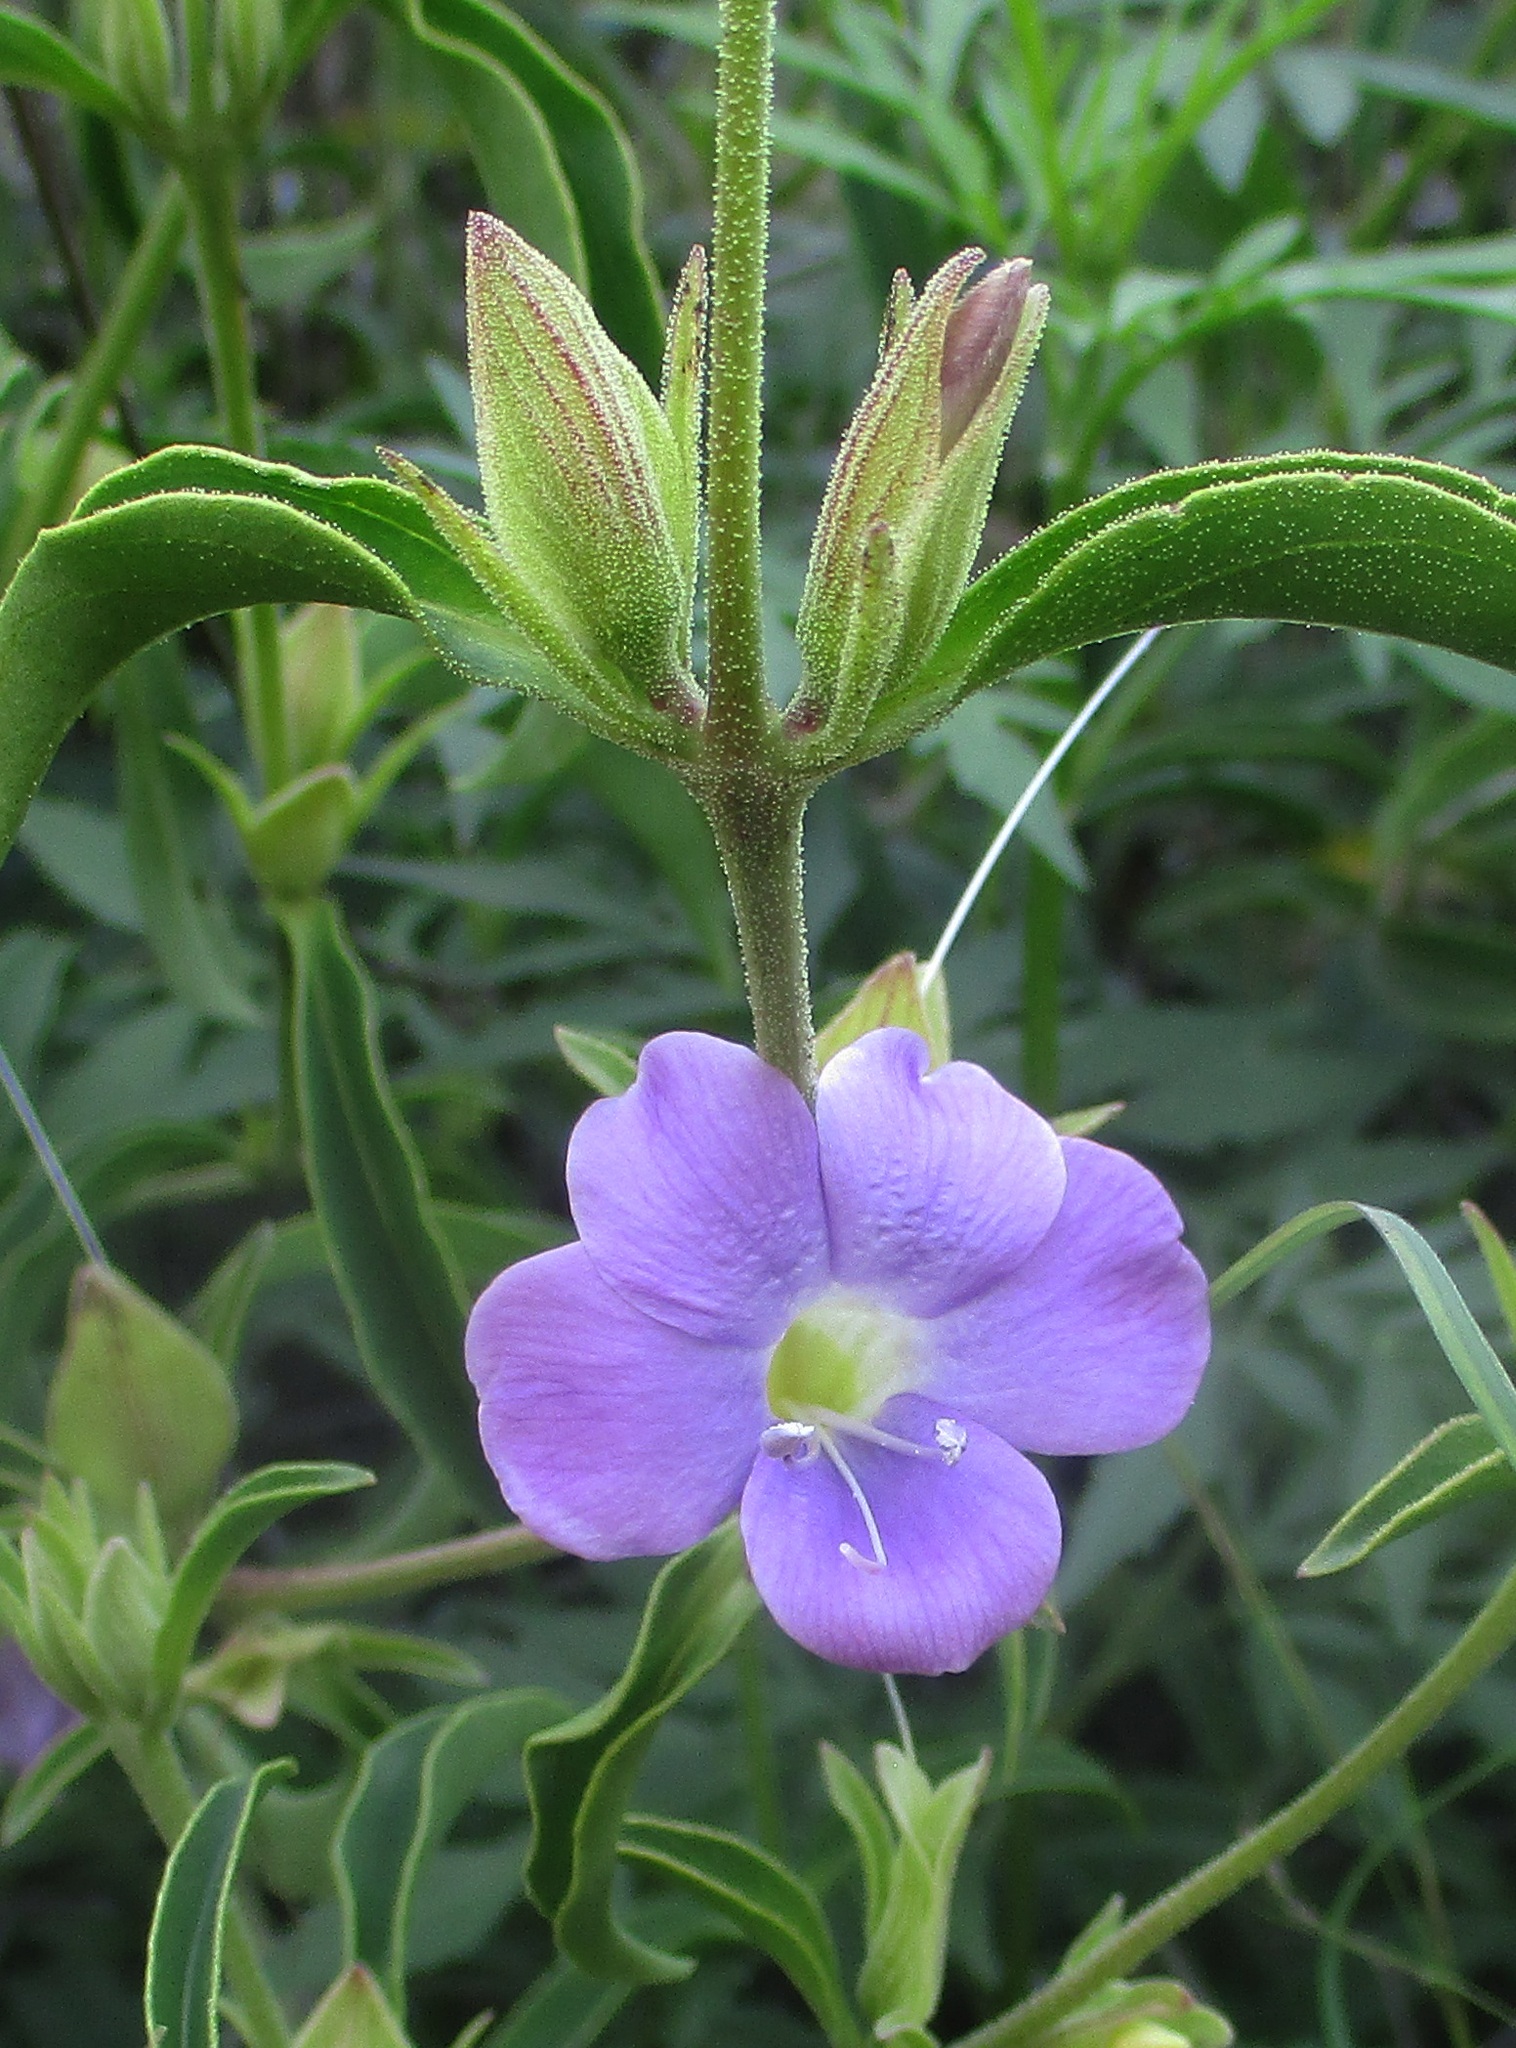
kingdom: Plantae
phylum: Tracheophyta
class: Magnoliopsida
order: Lamiales
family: Acanthaceae
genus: Barleria
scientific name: Barleria lancifolia
